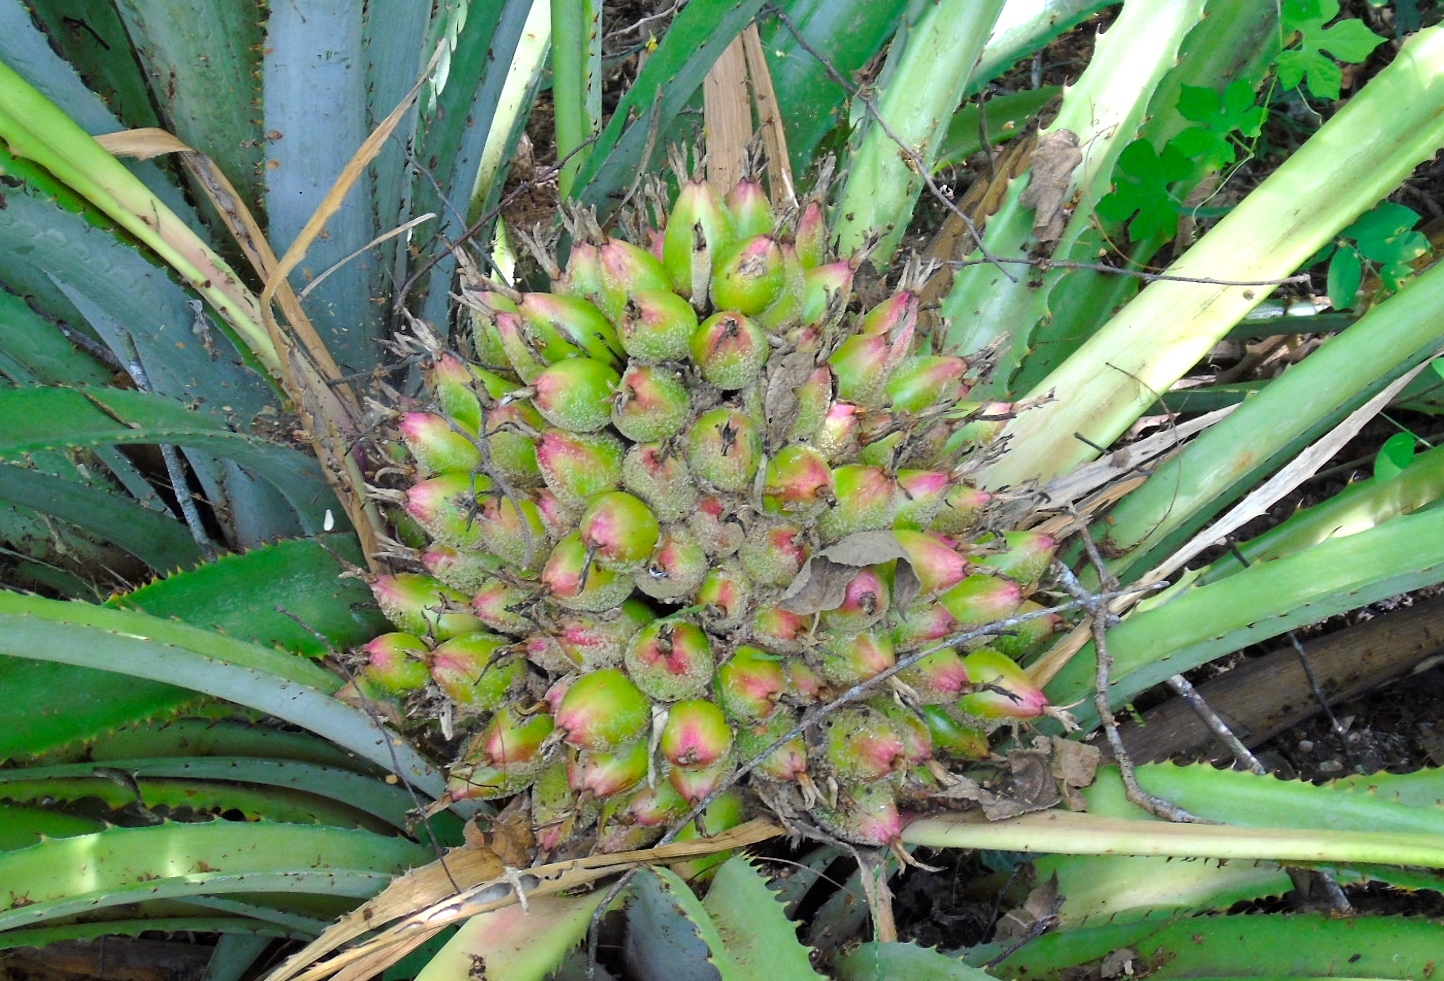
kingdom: Plantae
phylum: Tracheophyta
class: Liliopsida
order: Poales
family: Bromeliaceae
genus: Bromelia
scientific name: Bromelia hemisphaerica
